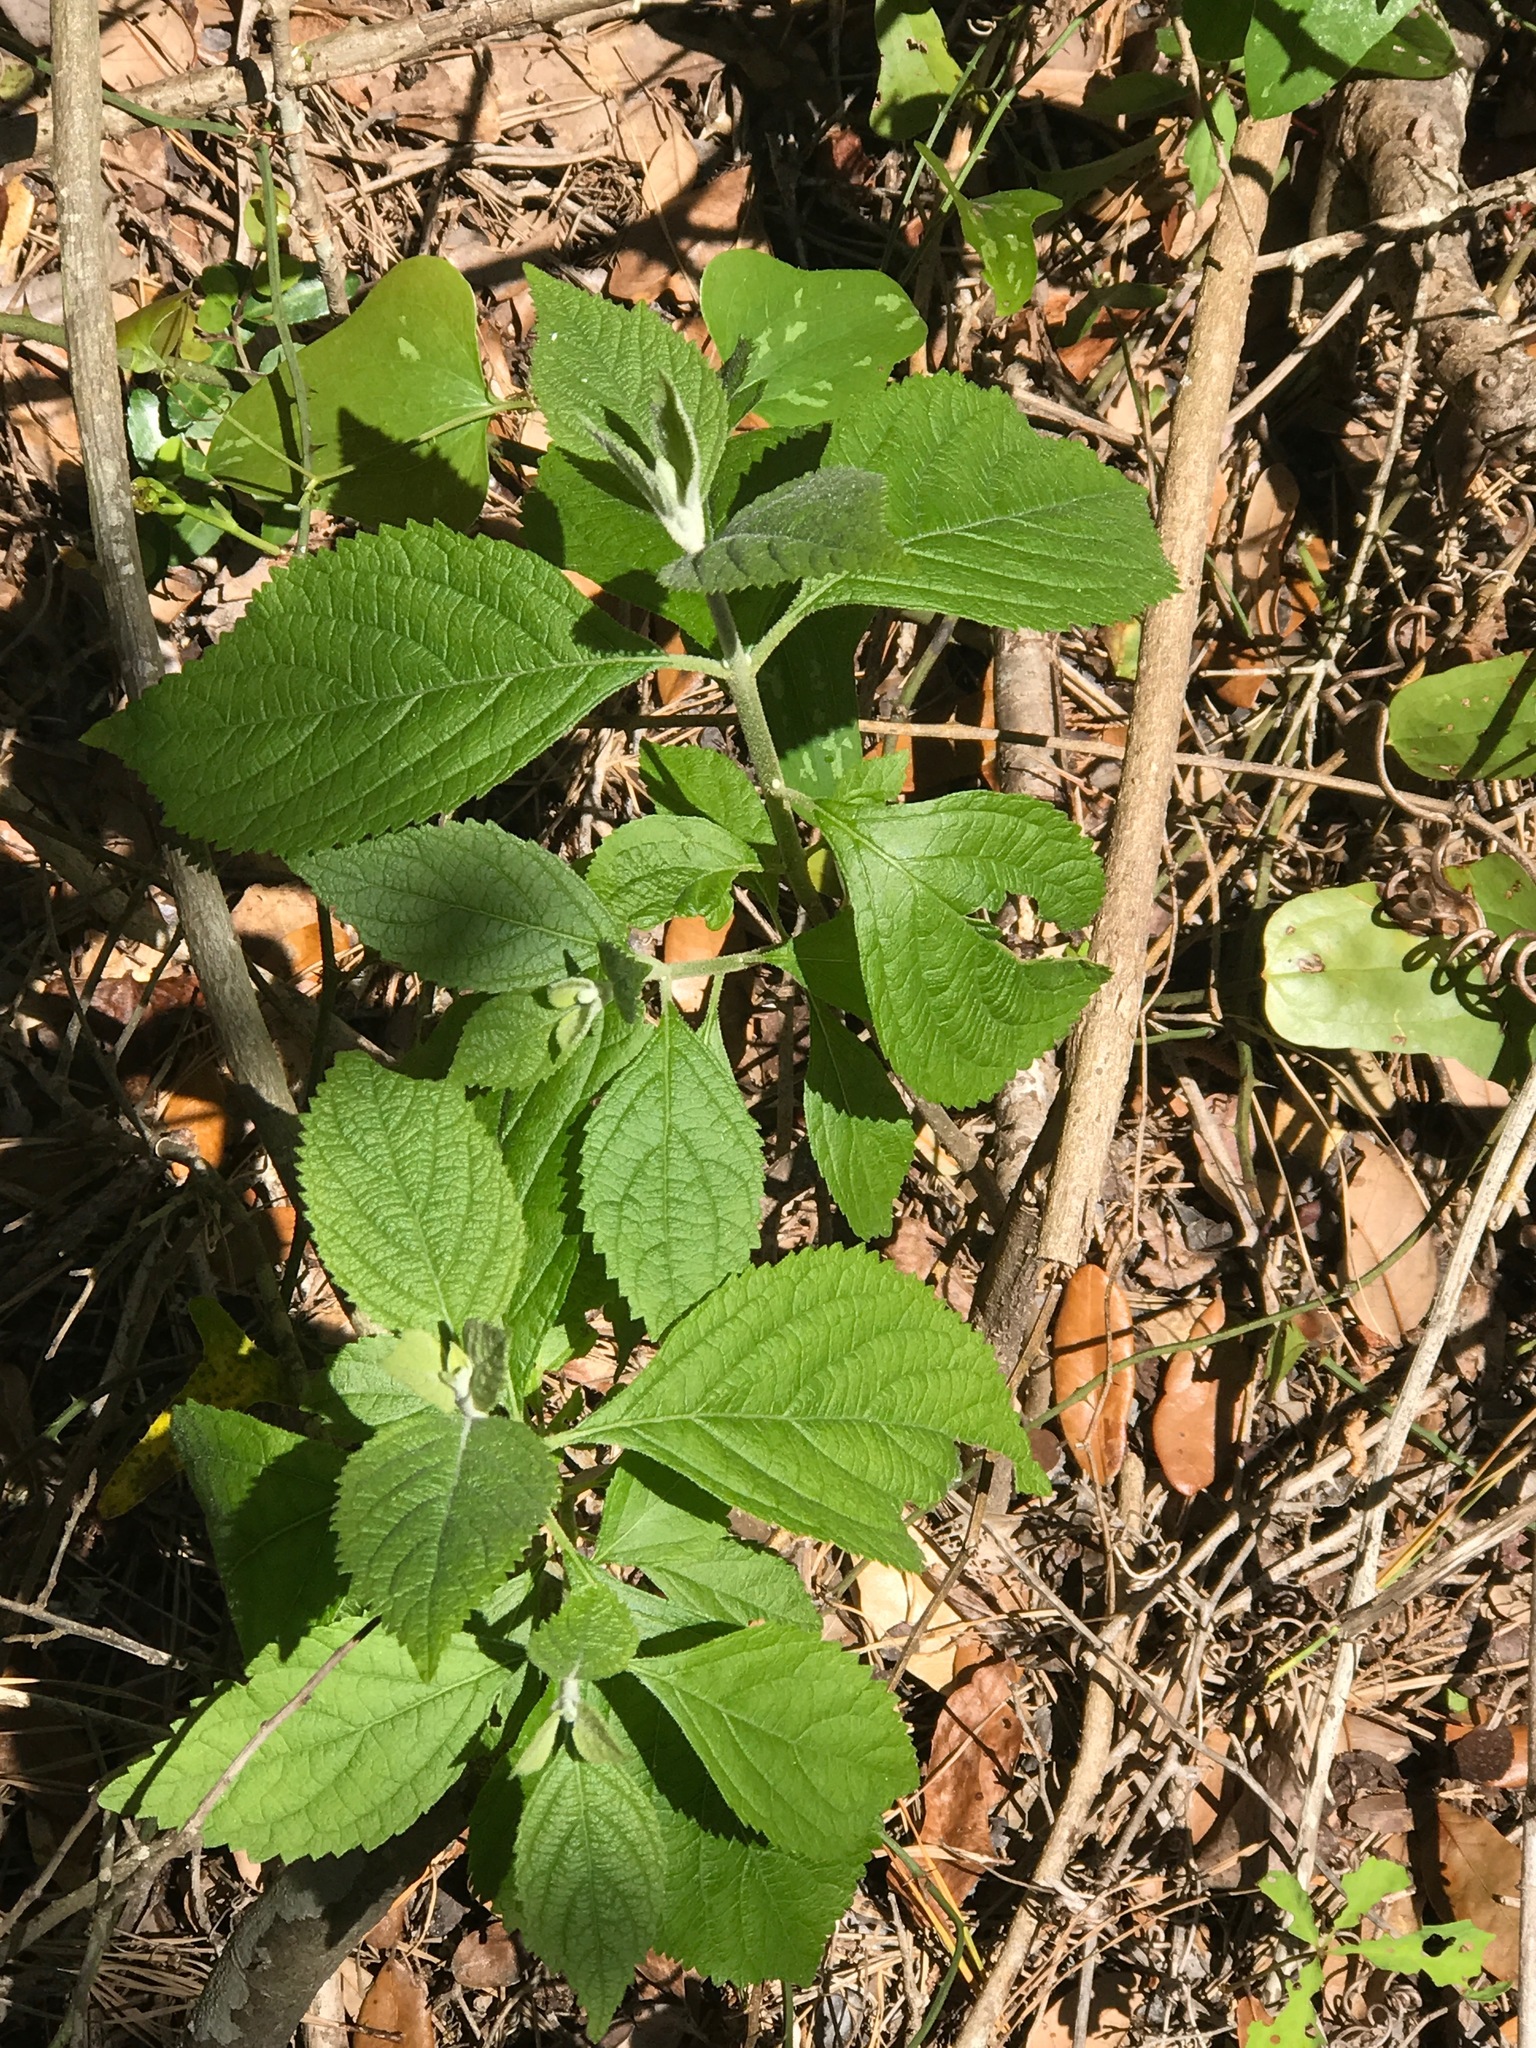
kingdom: Plantae
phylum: Tracheophyta
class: Magnoliopsida
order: Lamiales
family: Lamiaceae
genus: Callicarpa
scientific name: Callicarpa americana
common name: American beautyberry
